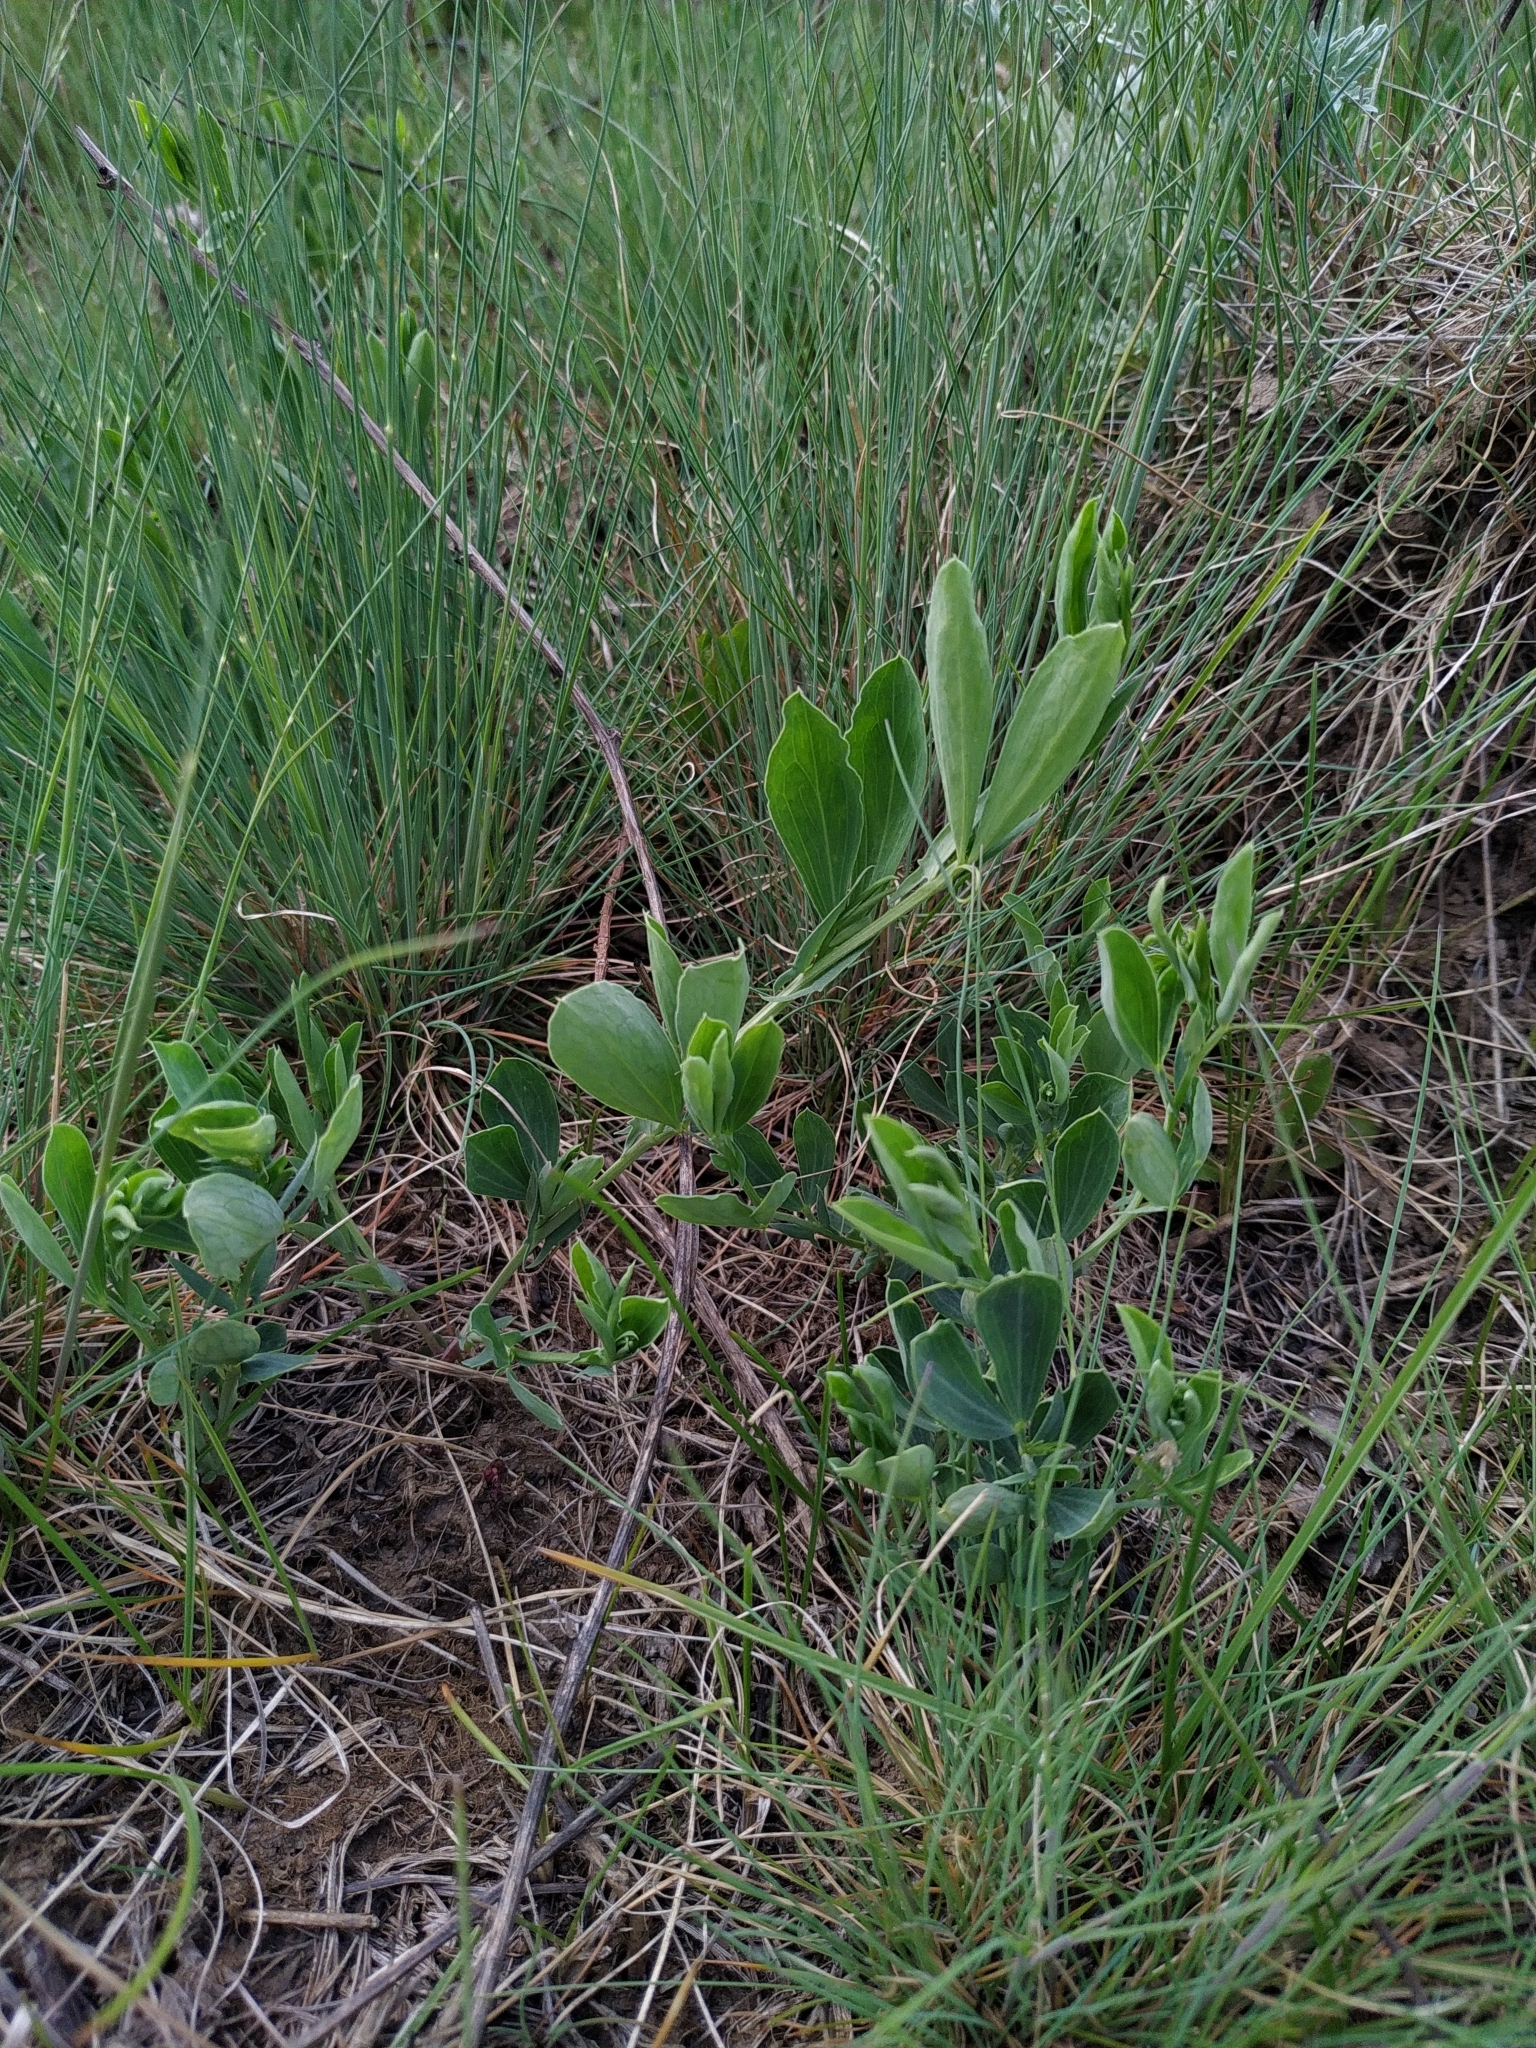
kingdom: Plantae
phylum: Tracheophyta
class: Magnoliopsida
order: Fabales
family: Fabaceae
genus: Lathyrus
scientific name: Lathyrus tuberosus
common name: Tuberous pea
